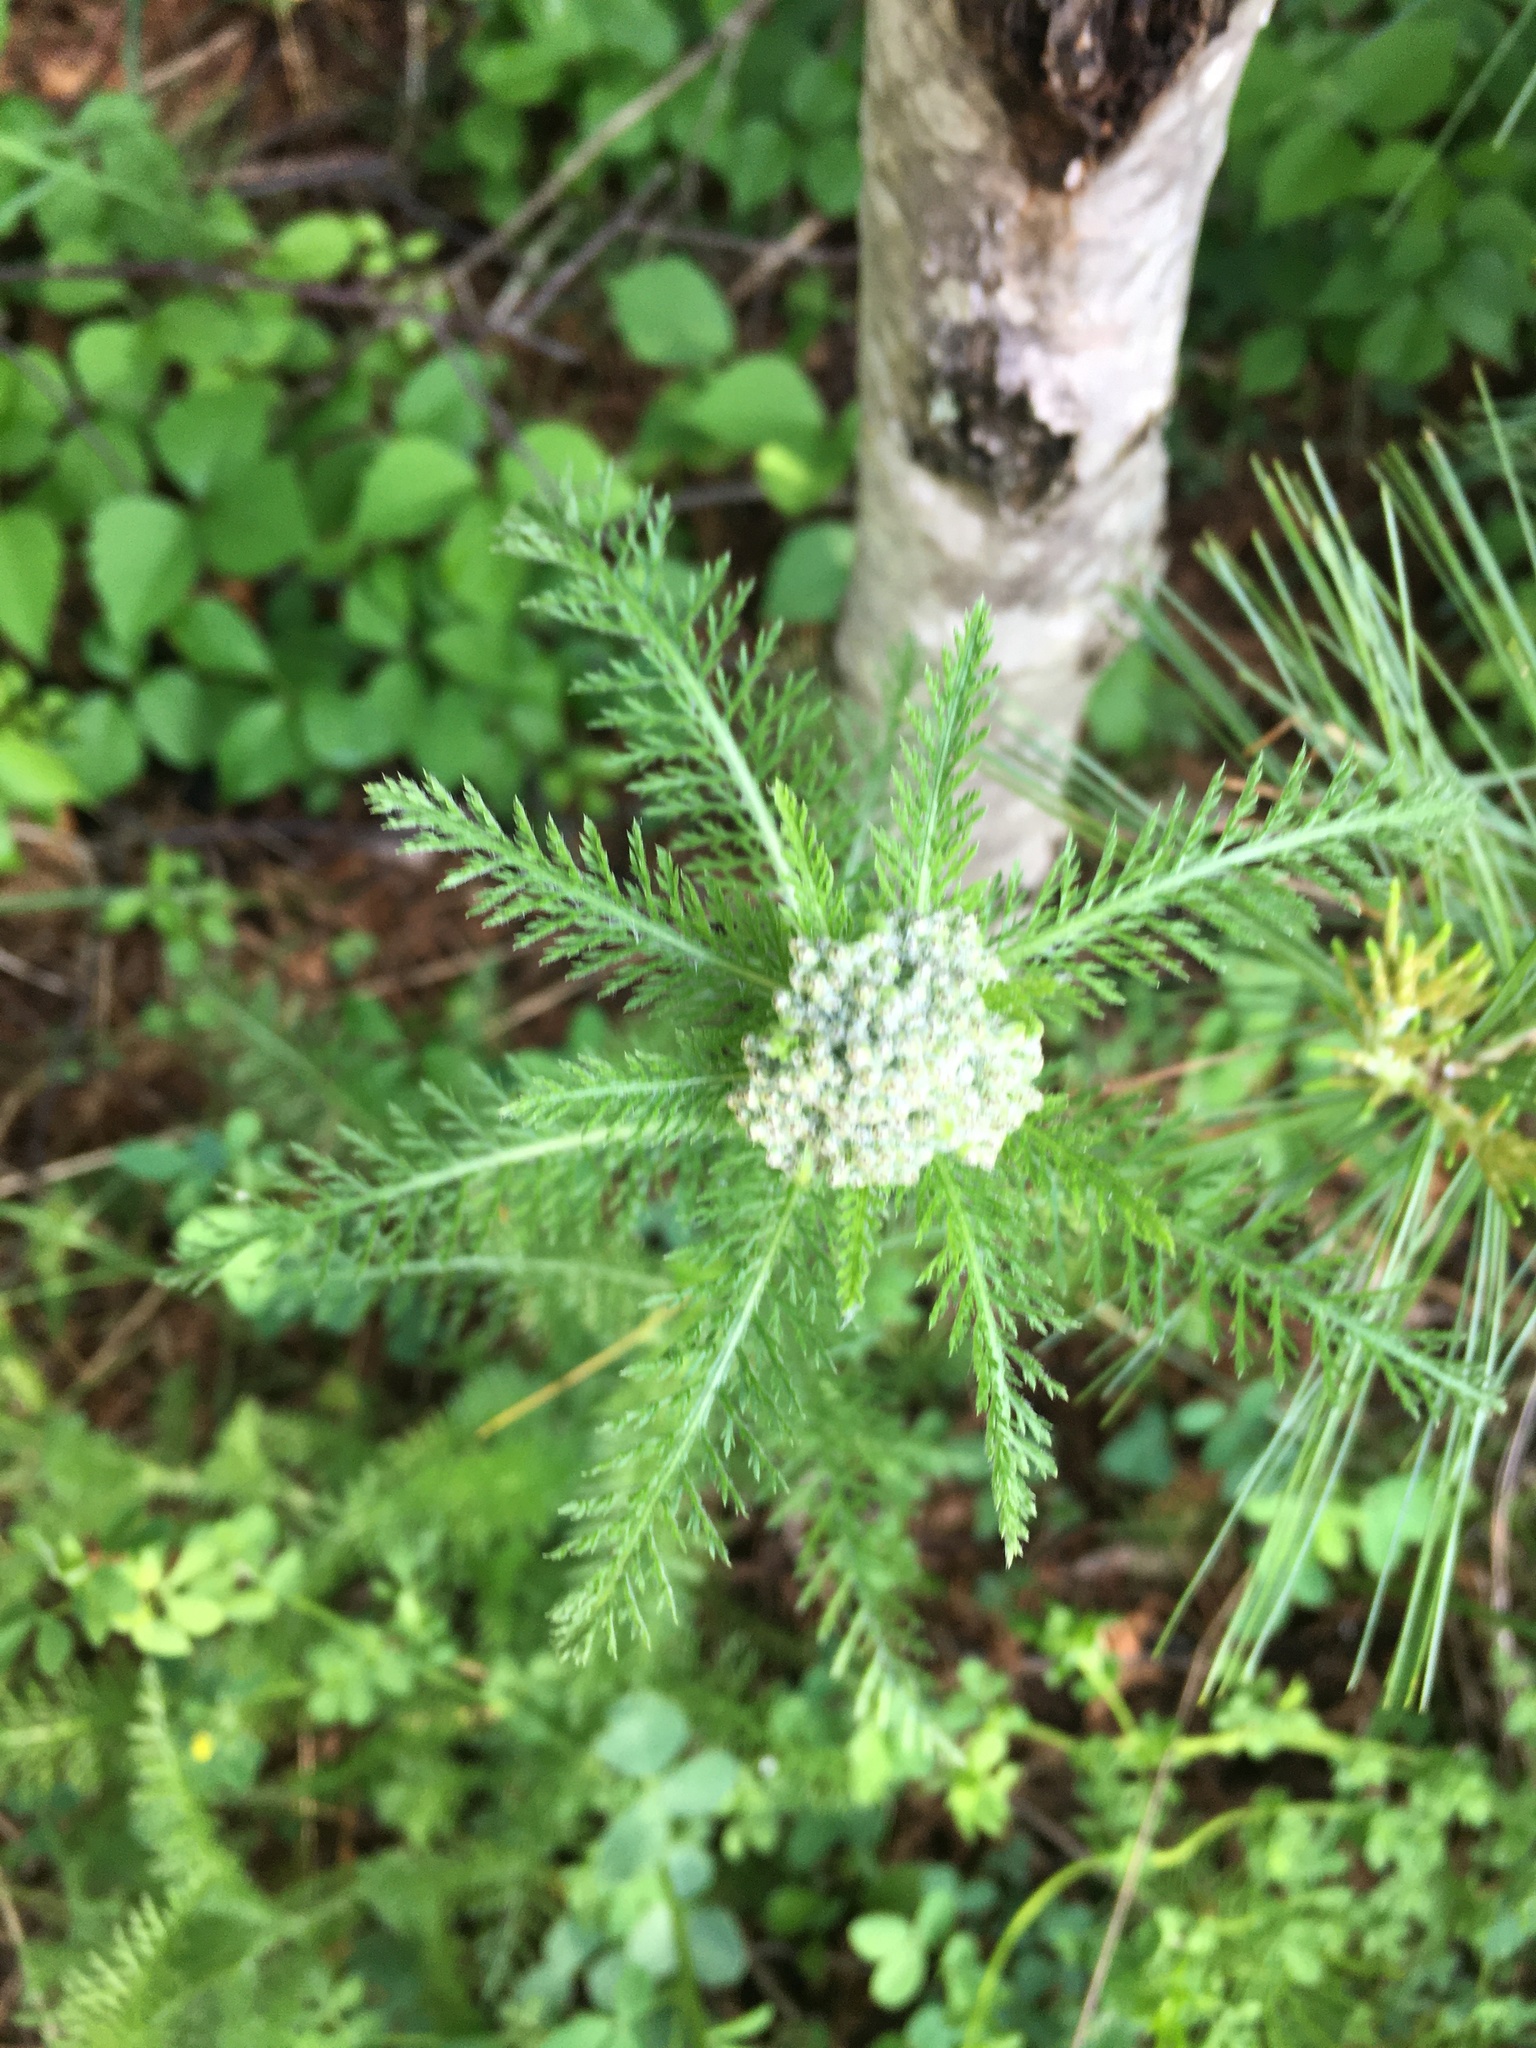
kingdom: Plantae
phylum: Tracheophyta
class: Magnoliopsida
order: Asterales
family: Asteraceae
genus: Achillea
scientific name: Achillea millefolium
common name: Yarrow
